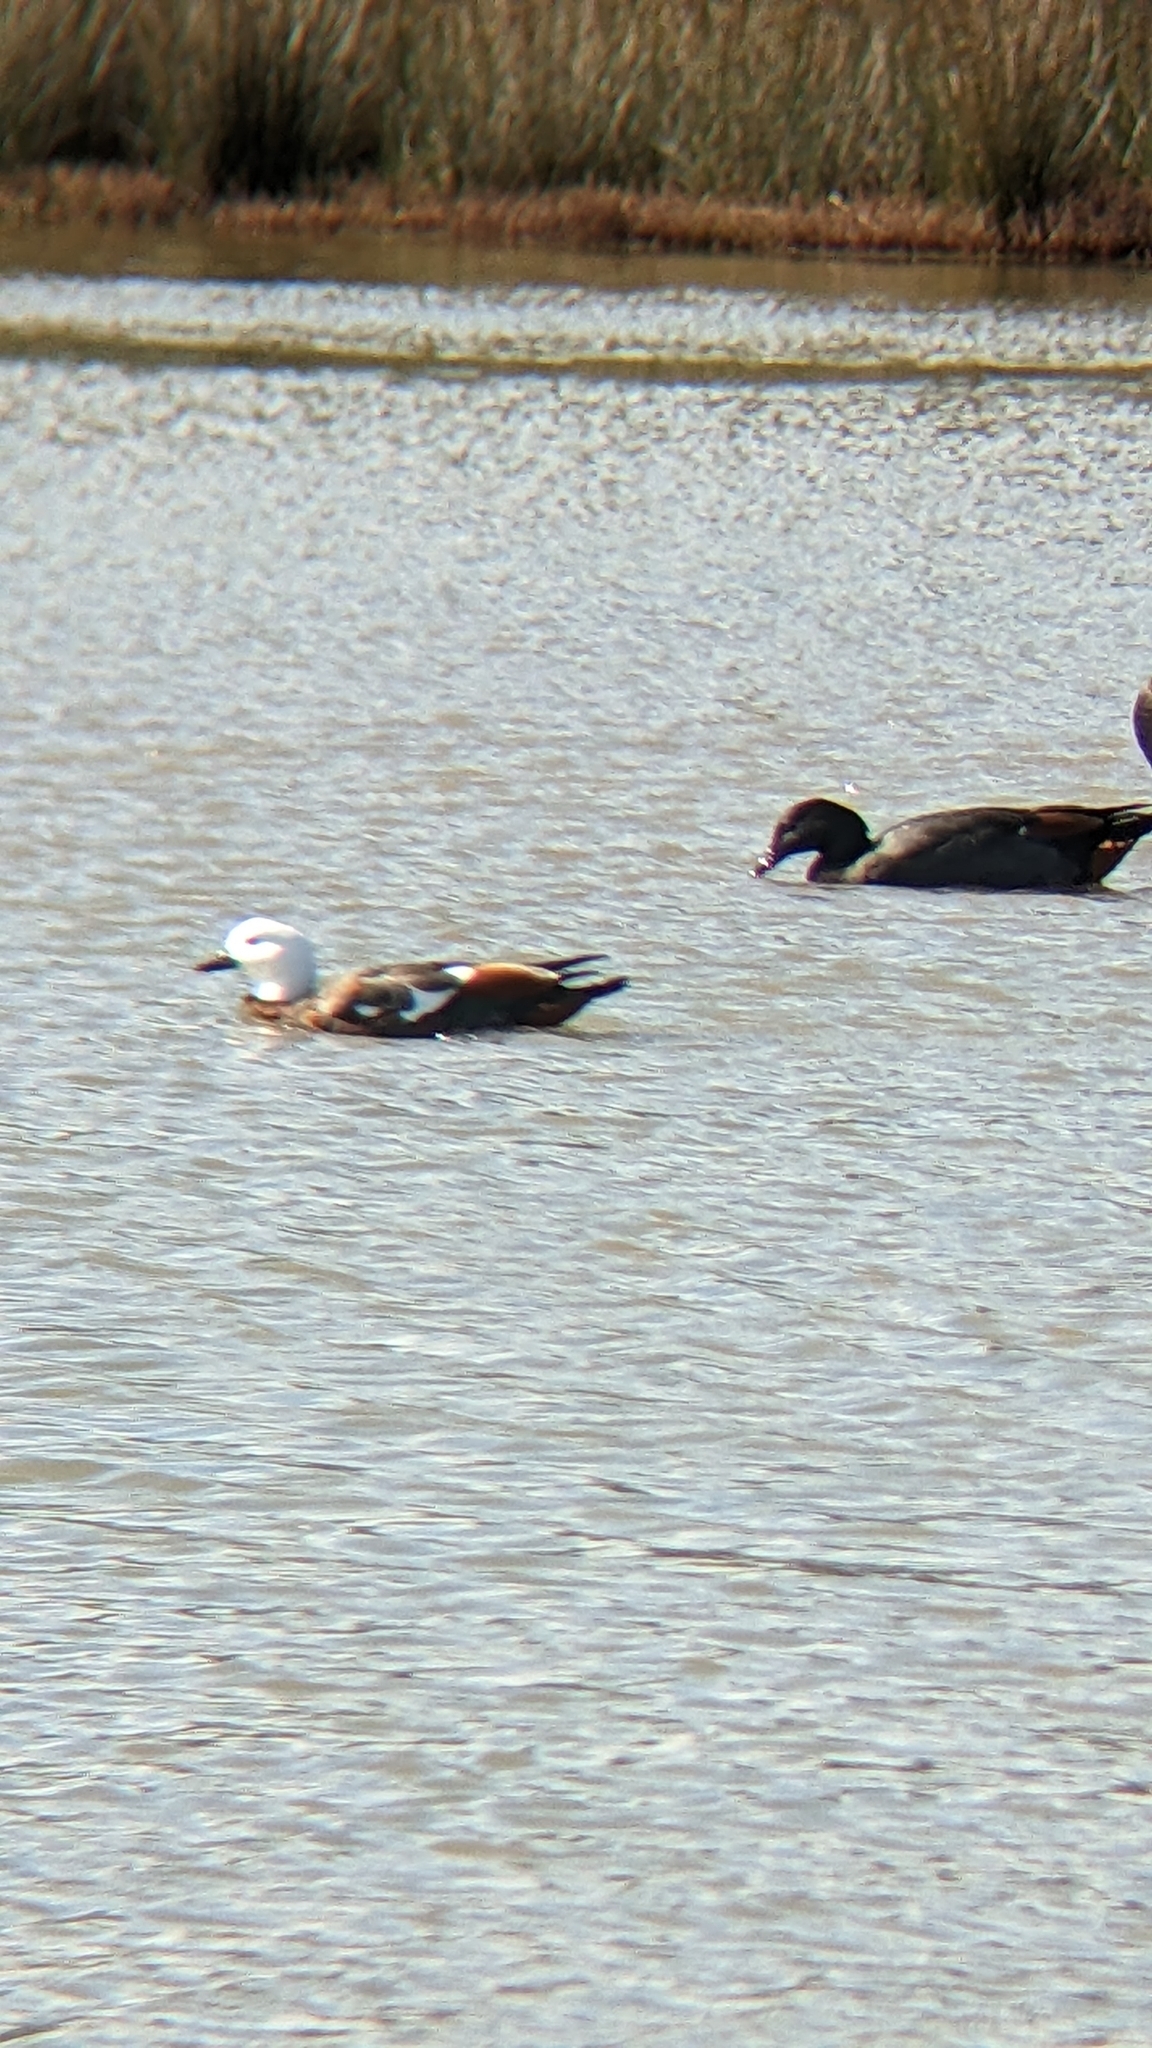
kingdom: Animalia
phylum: Chordata
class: Aves
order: Anseriformes
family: Anatidae
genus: Tadorna
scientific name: Tadorna variegata
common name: Paradise shelduck
